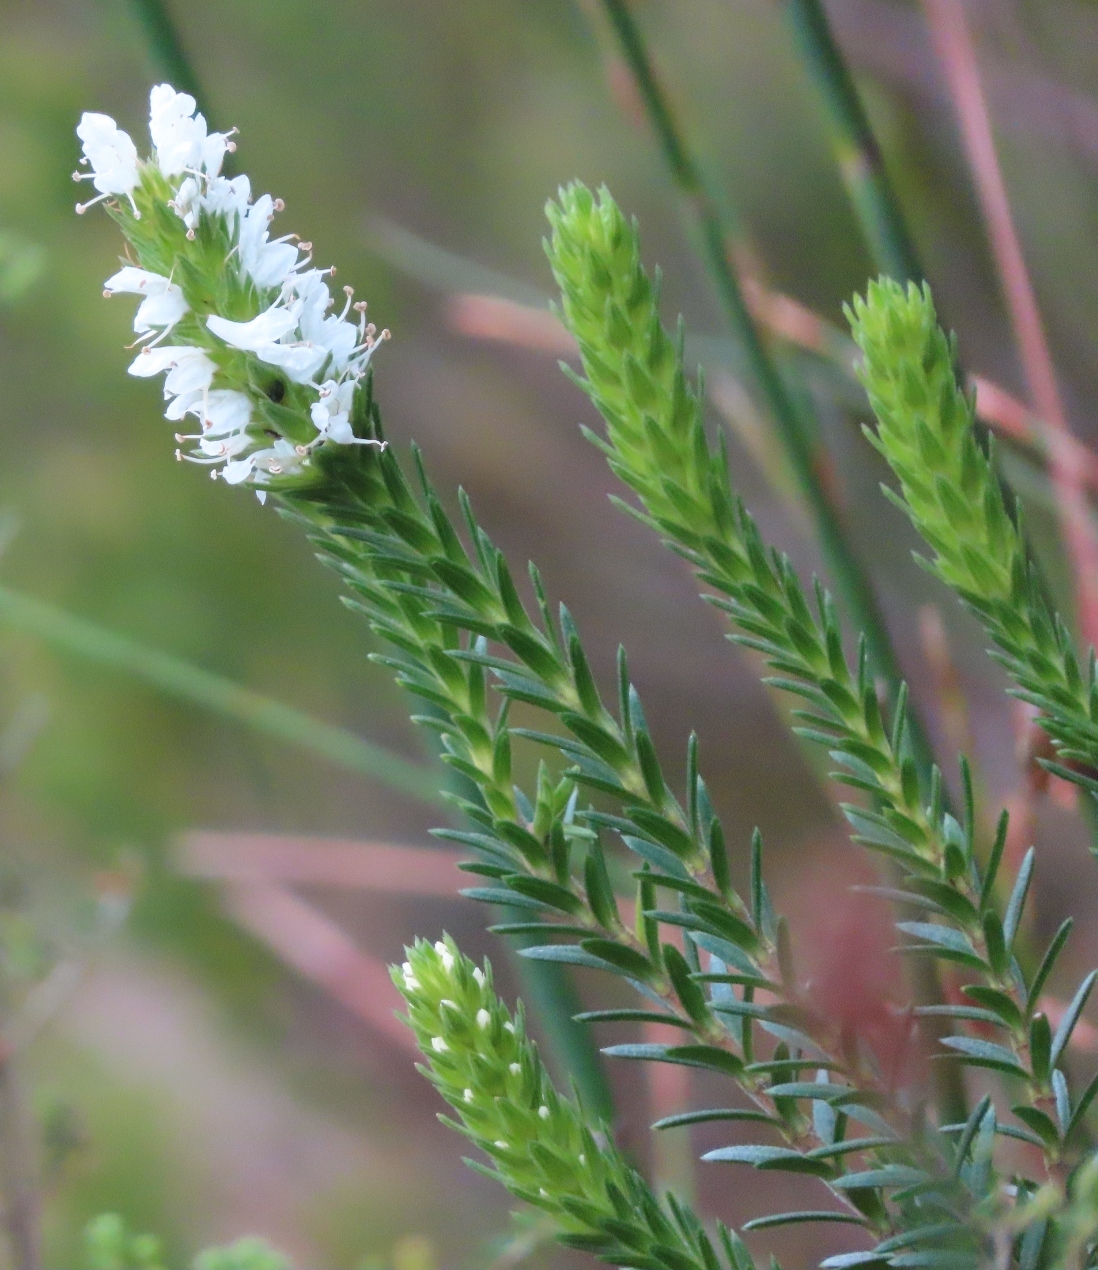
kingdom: Plantae
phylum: Tracheophyta
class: Magnoliopsida
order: Lamiales
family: Stilbaceae
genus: Stilbe
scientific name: Stilbe serrulata
